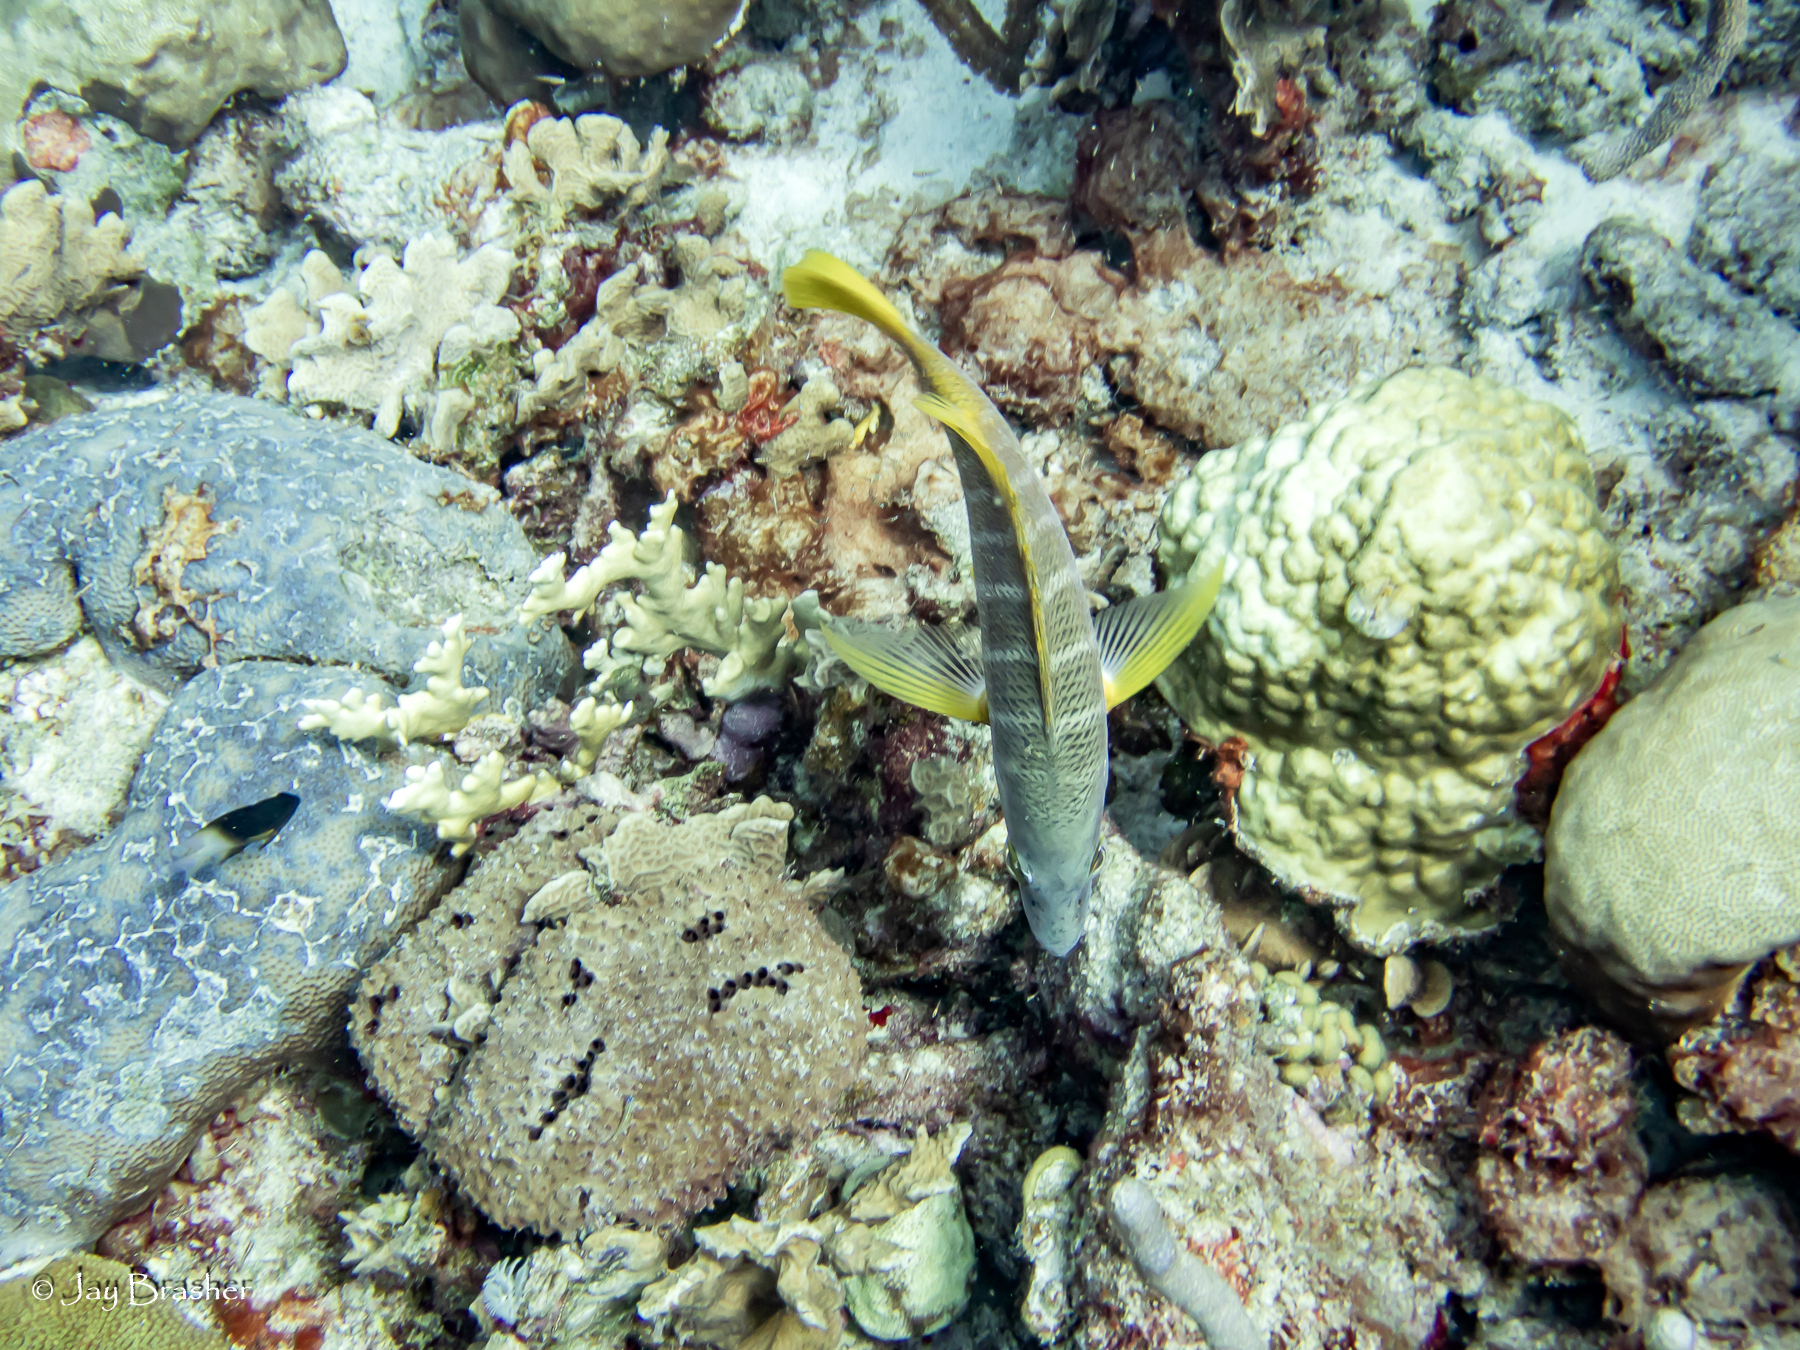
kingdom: Animalia
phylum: Chordata
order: Perciformes
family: Lutjanidae
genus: Lutjanus
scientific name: Lutjanus apodus
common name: Schoolmaster
